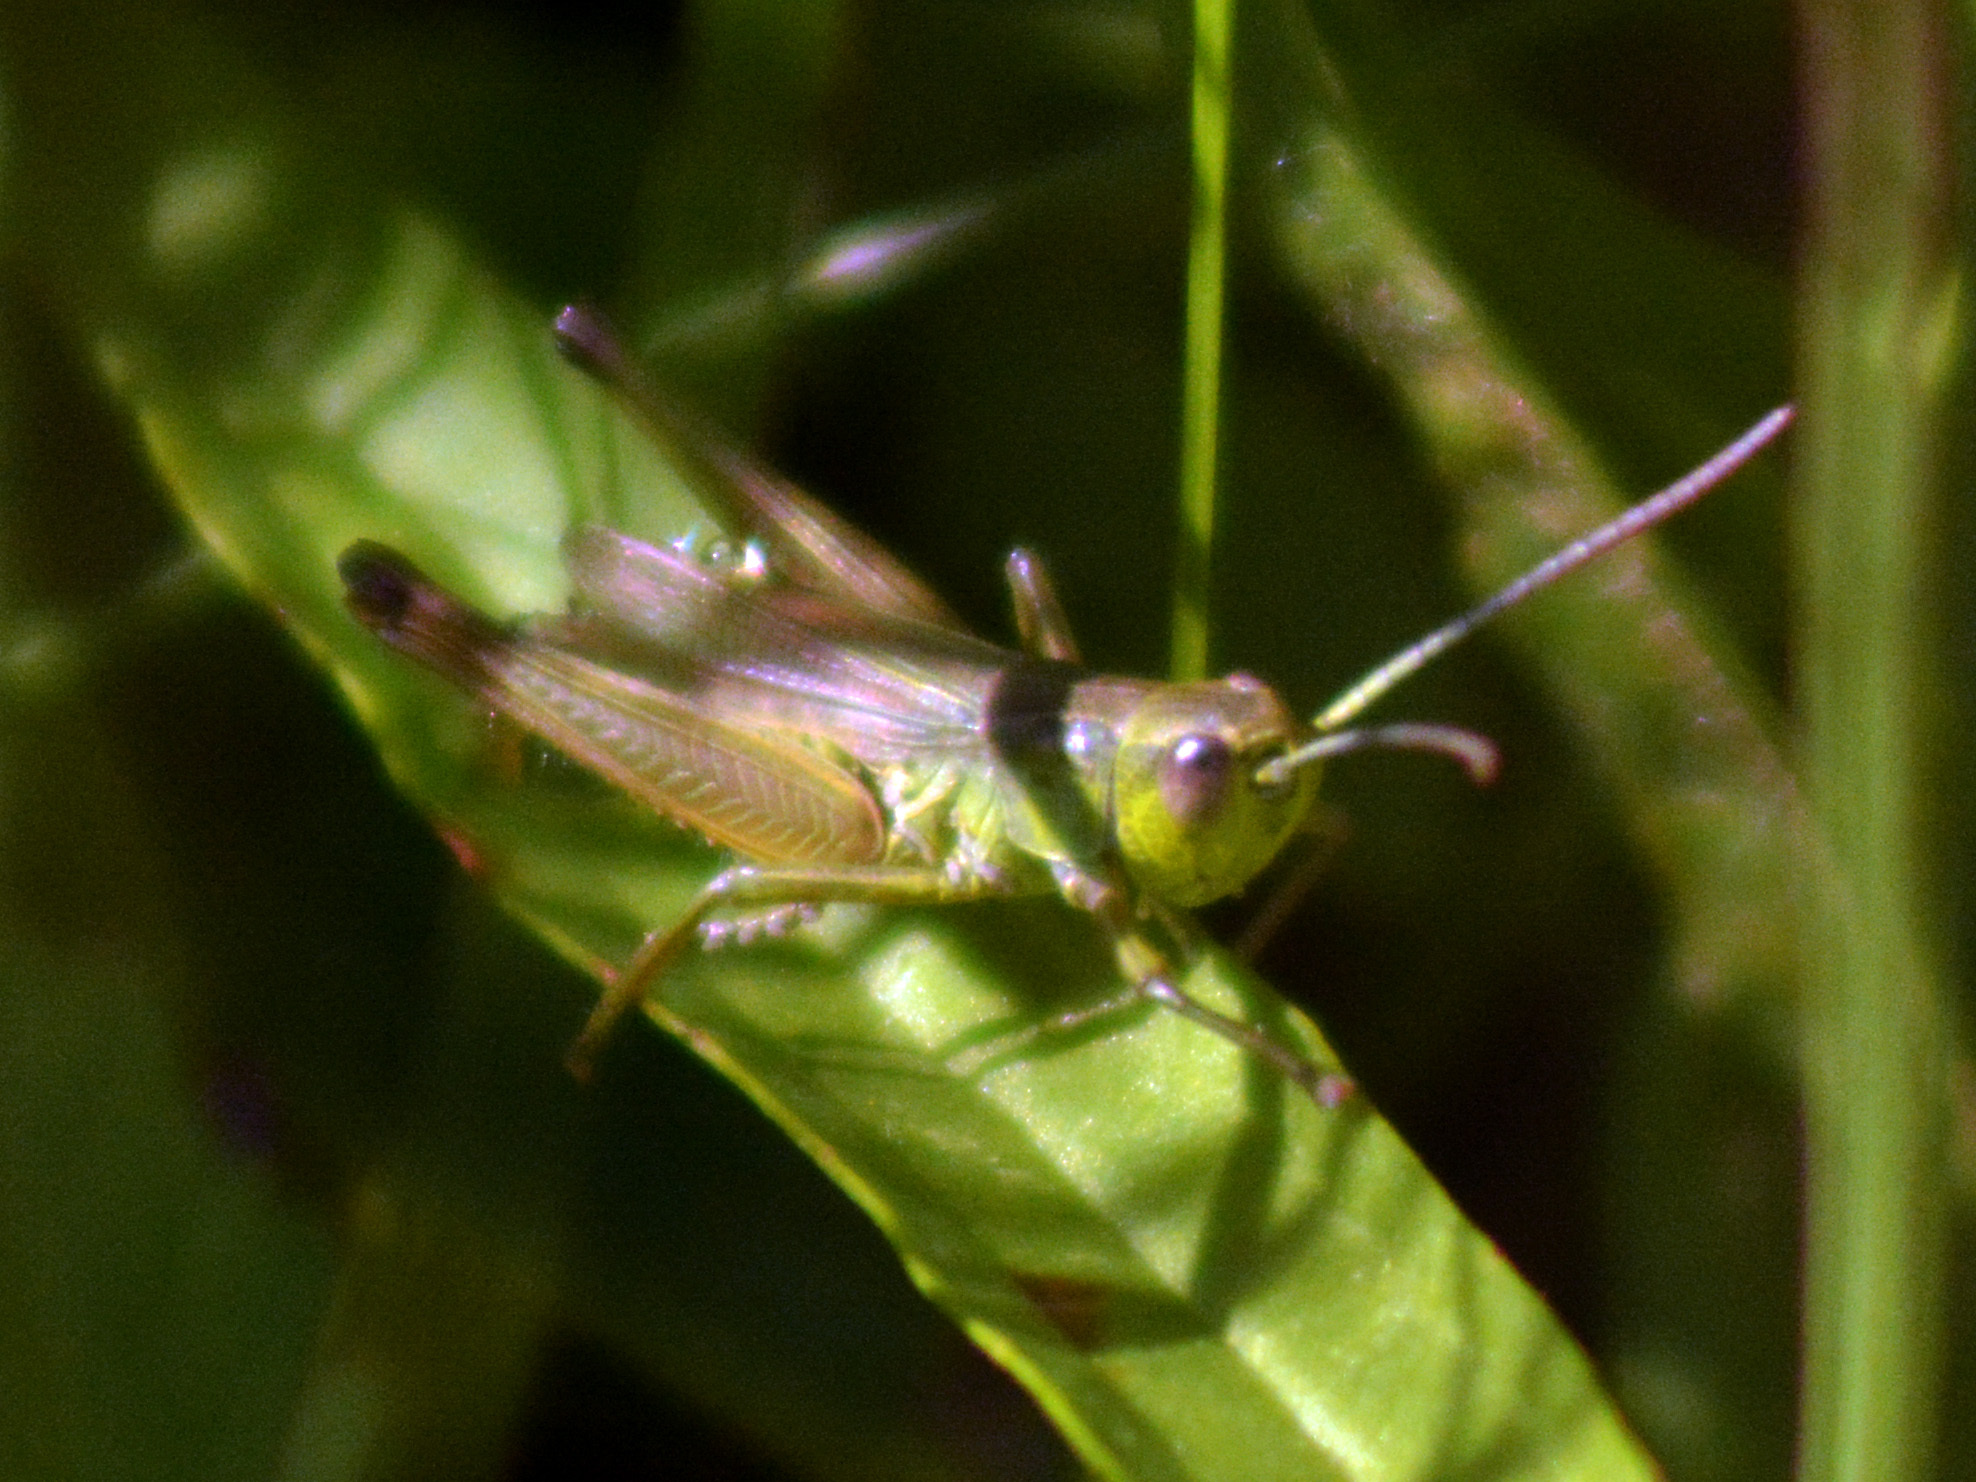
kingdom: Animalia
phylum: Arthropoda
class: Insecta
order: Orthoptera
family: Acrididae
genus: Pseudochorthippus
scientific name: Pseudochorthippus parallelus
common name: Meadow grasshopper
